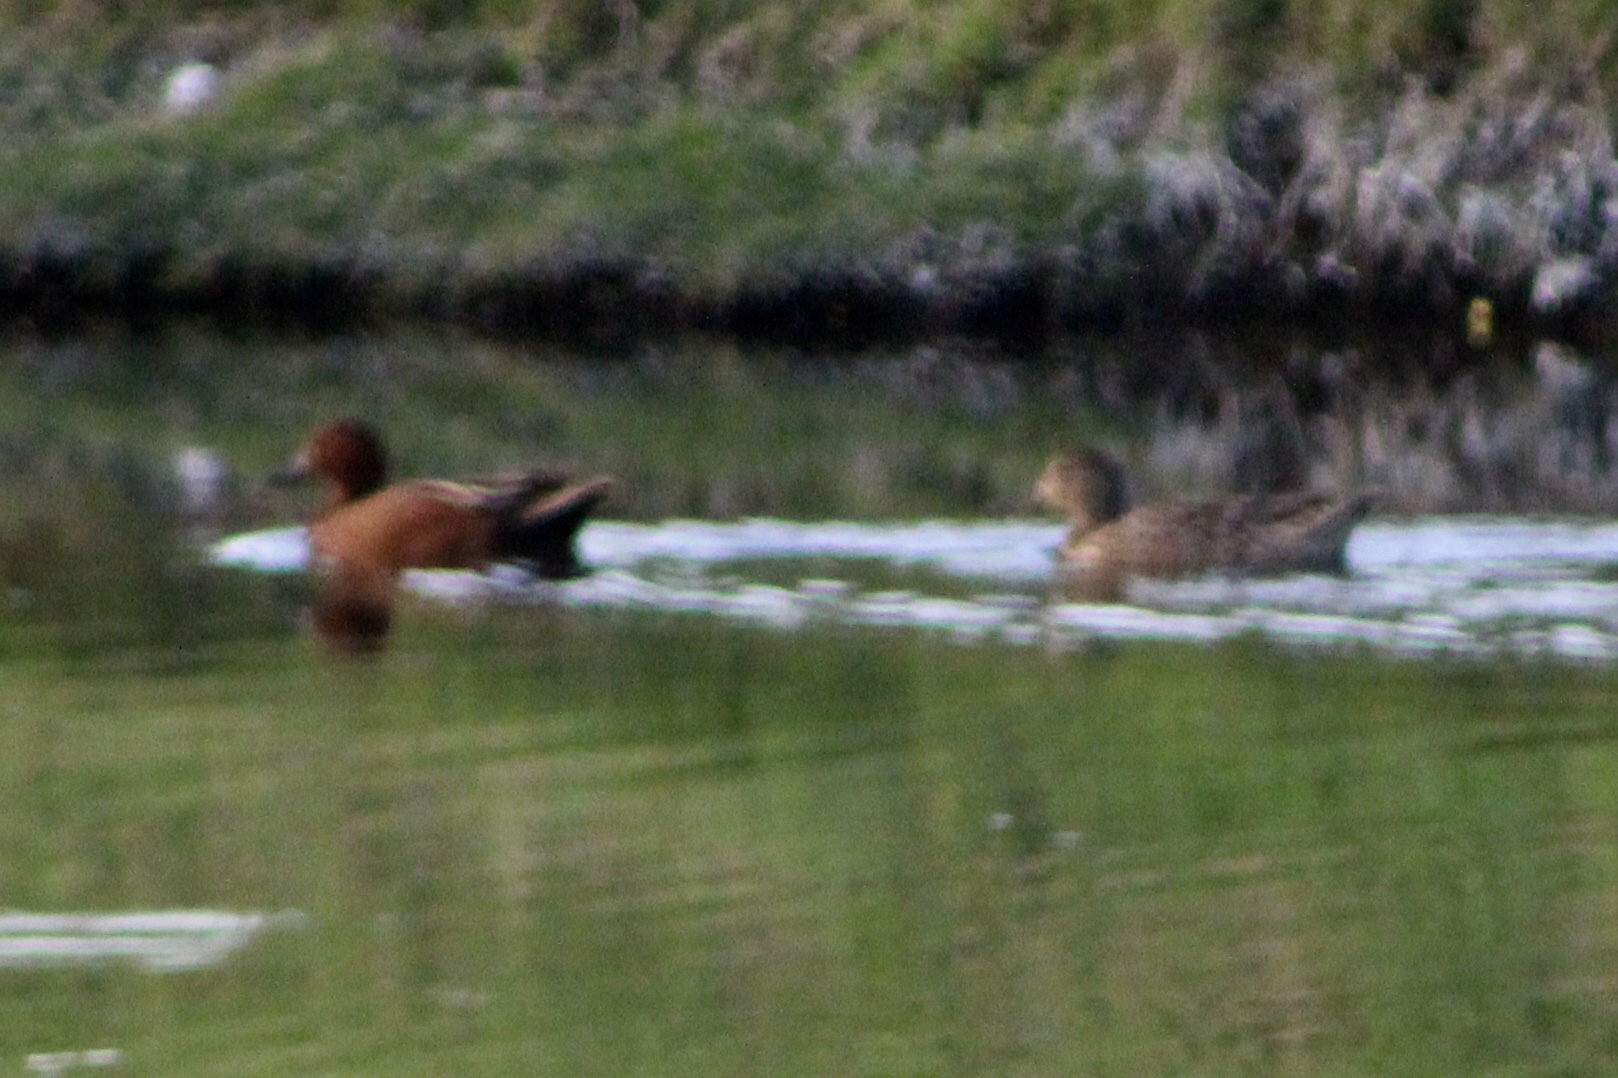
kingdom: Animalia
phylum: Chordata
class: Aves
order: Anseriformes
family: Anatidae
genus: Spatula
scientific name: Spatula cyanoptera
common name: Cinnamon teal
